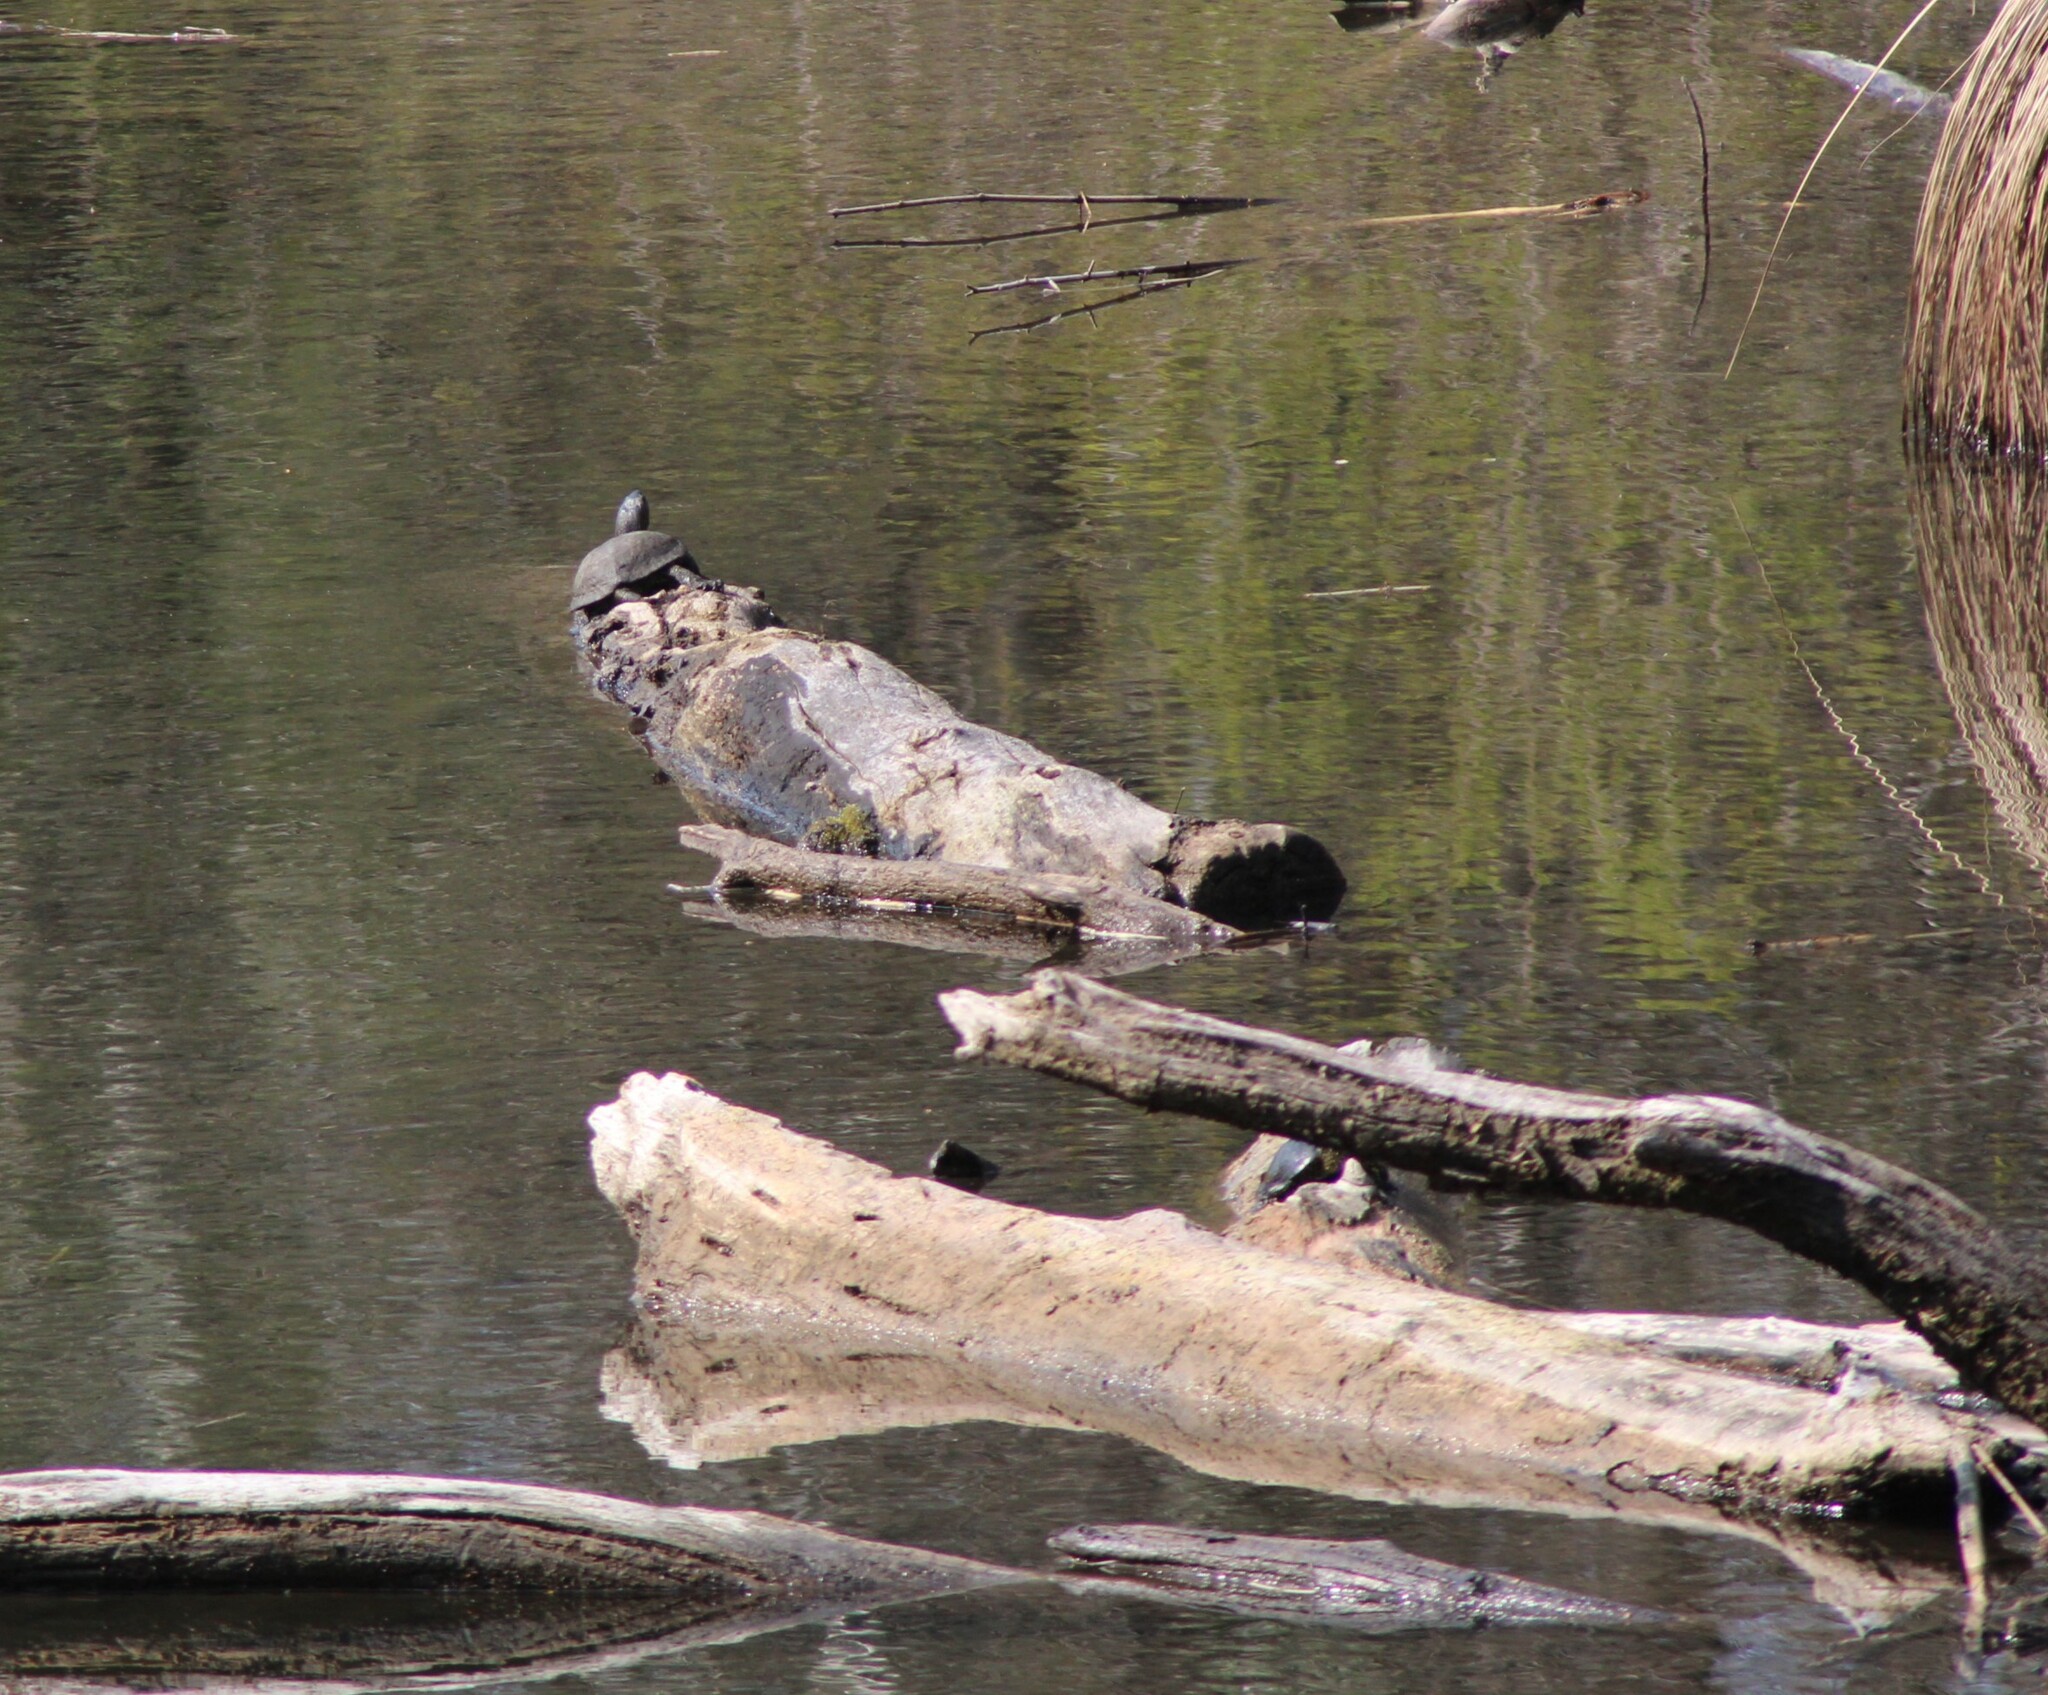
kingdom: Animalia
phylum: Chordata
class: Testudines
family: Emydidae
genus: Emys
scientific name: Emys orbicularis
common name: European pond turtle
